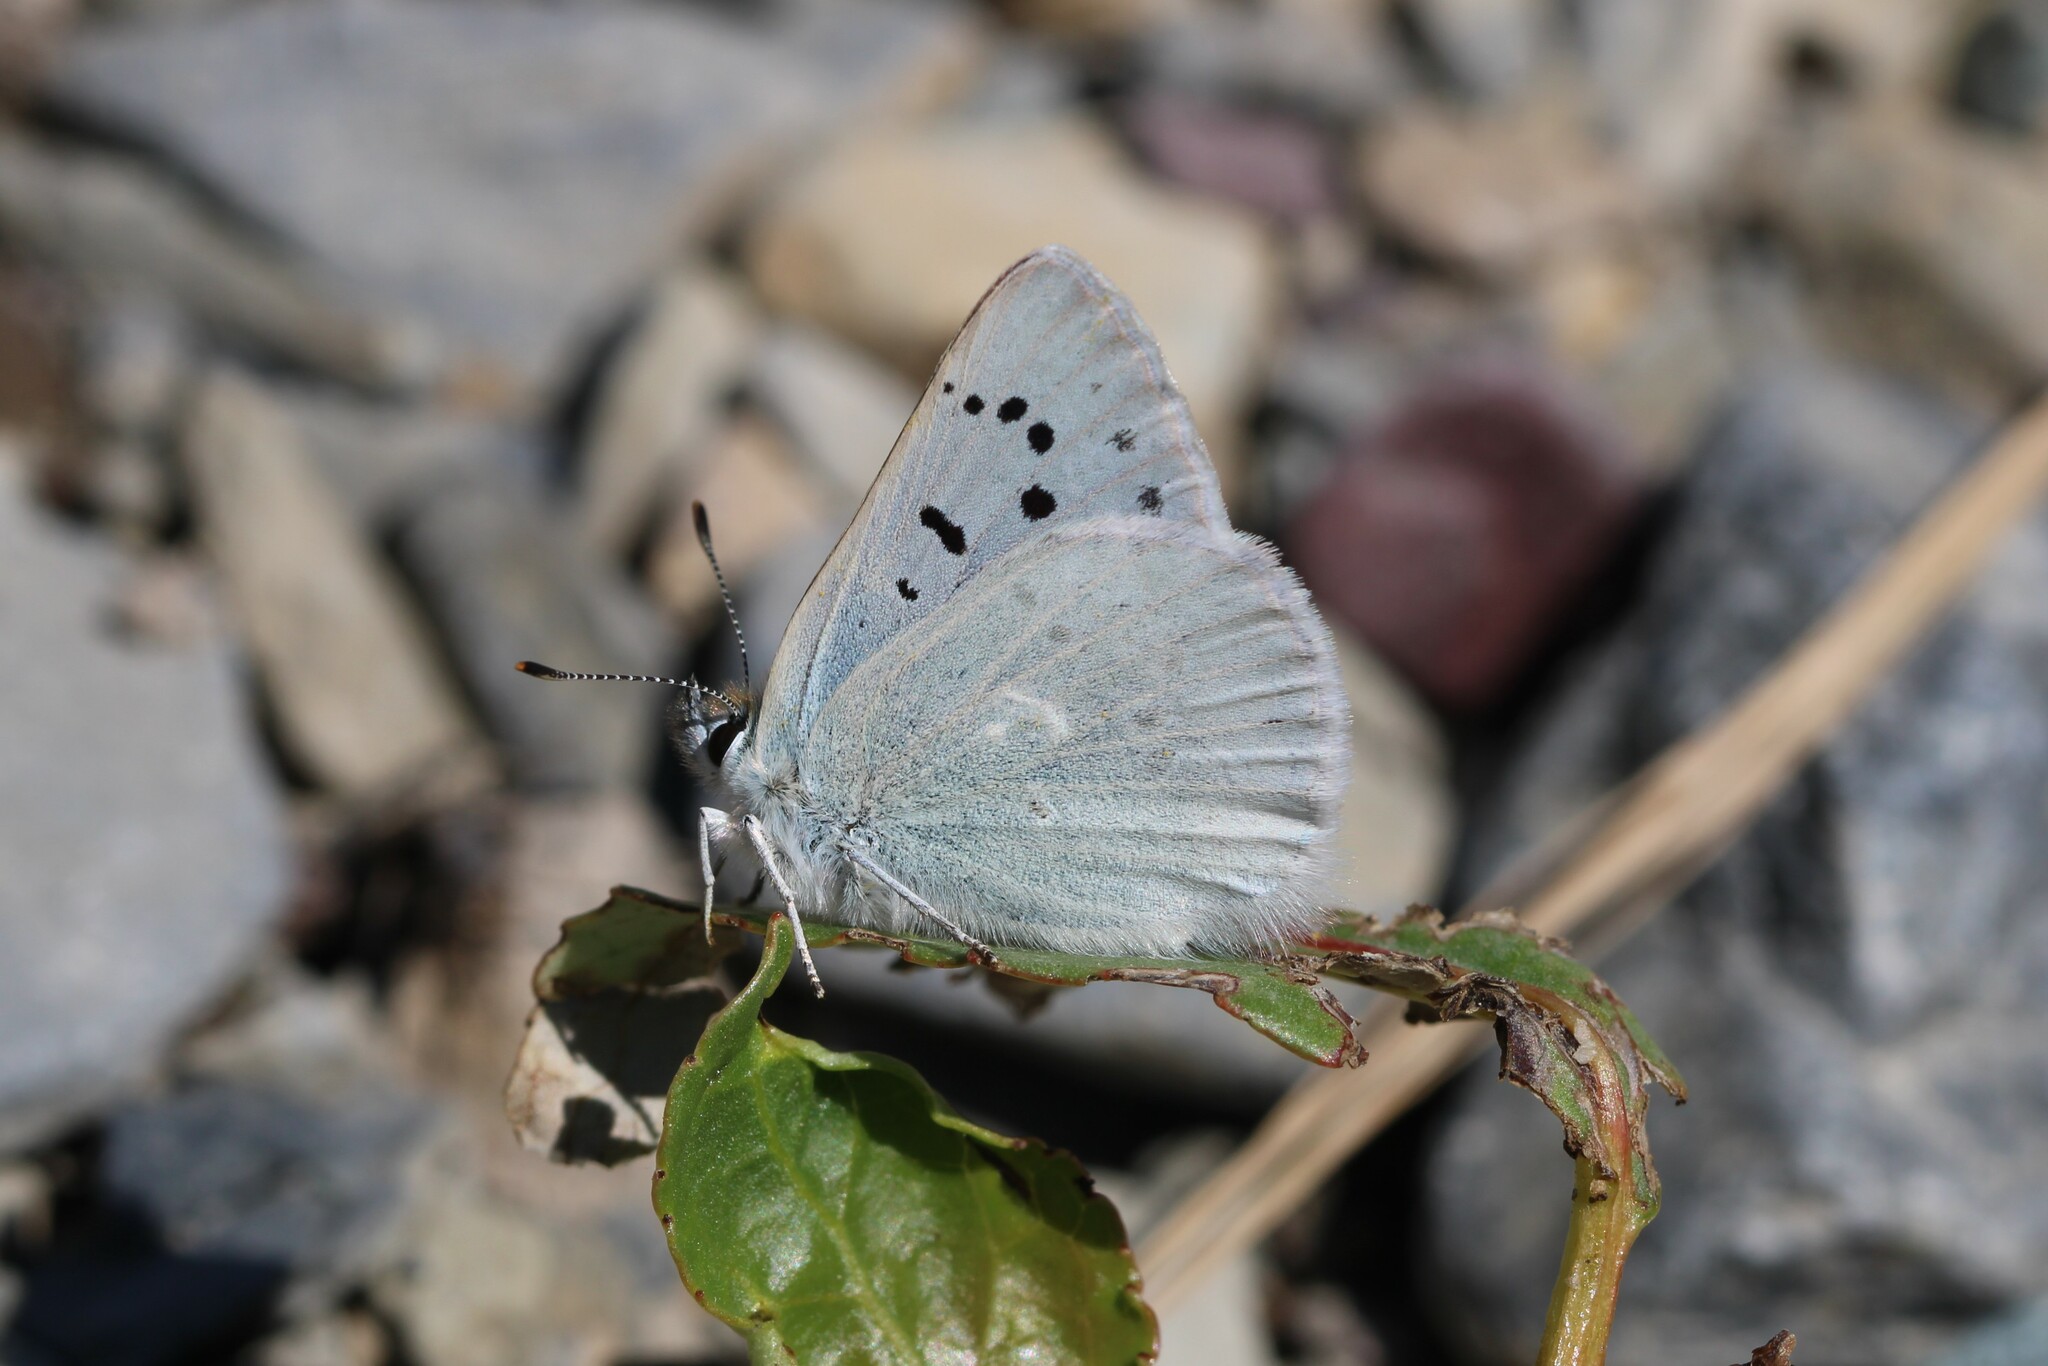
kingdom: Animalia
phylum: Arthropoda
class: Insecta
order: Lepidoptera
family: Lycaenidae
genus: Tharsalea
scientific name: Tharsalea heteronea
